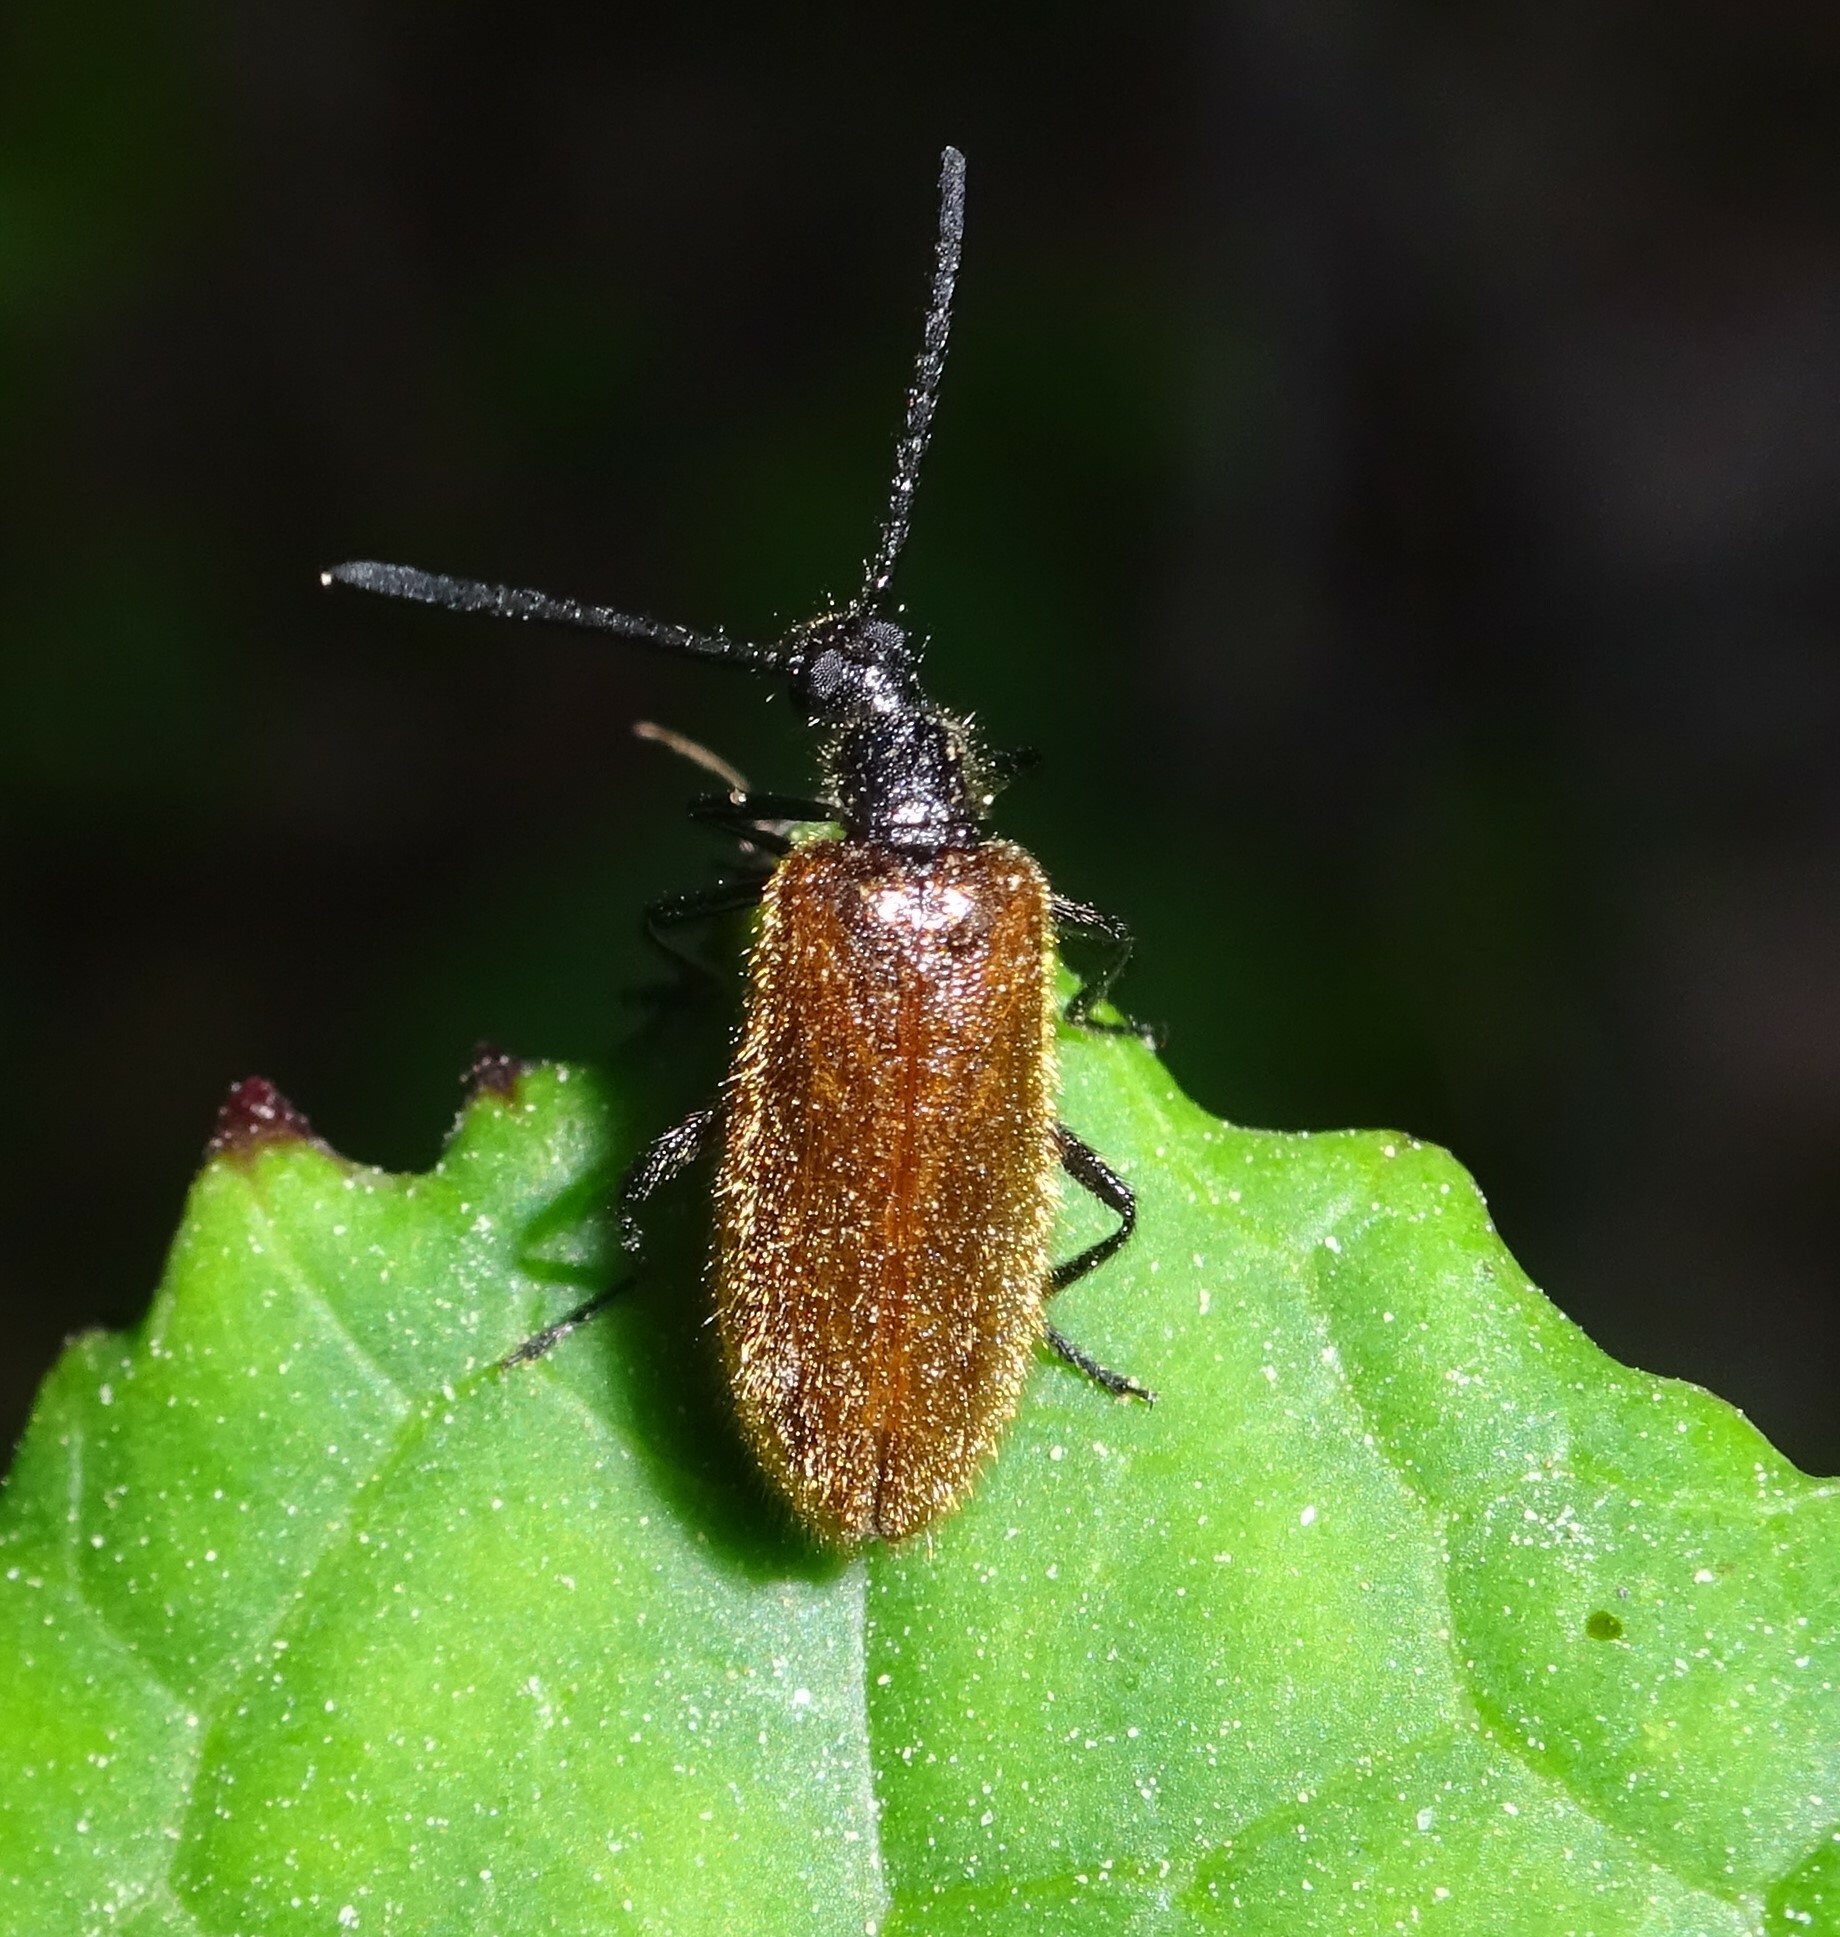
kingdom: Animalia
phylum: Arthropoda
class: Insecta
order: Coleoptera
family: Tenebrionidae
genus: Lagria
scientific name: Lagria hirta
